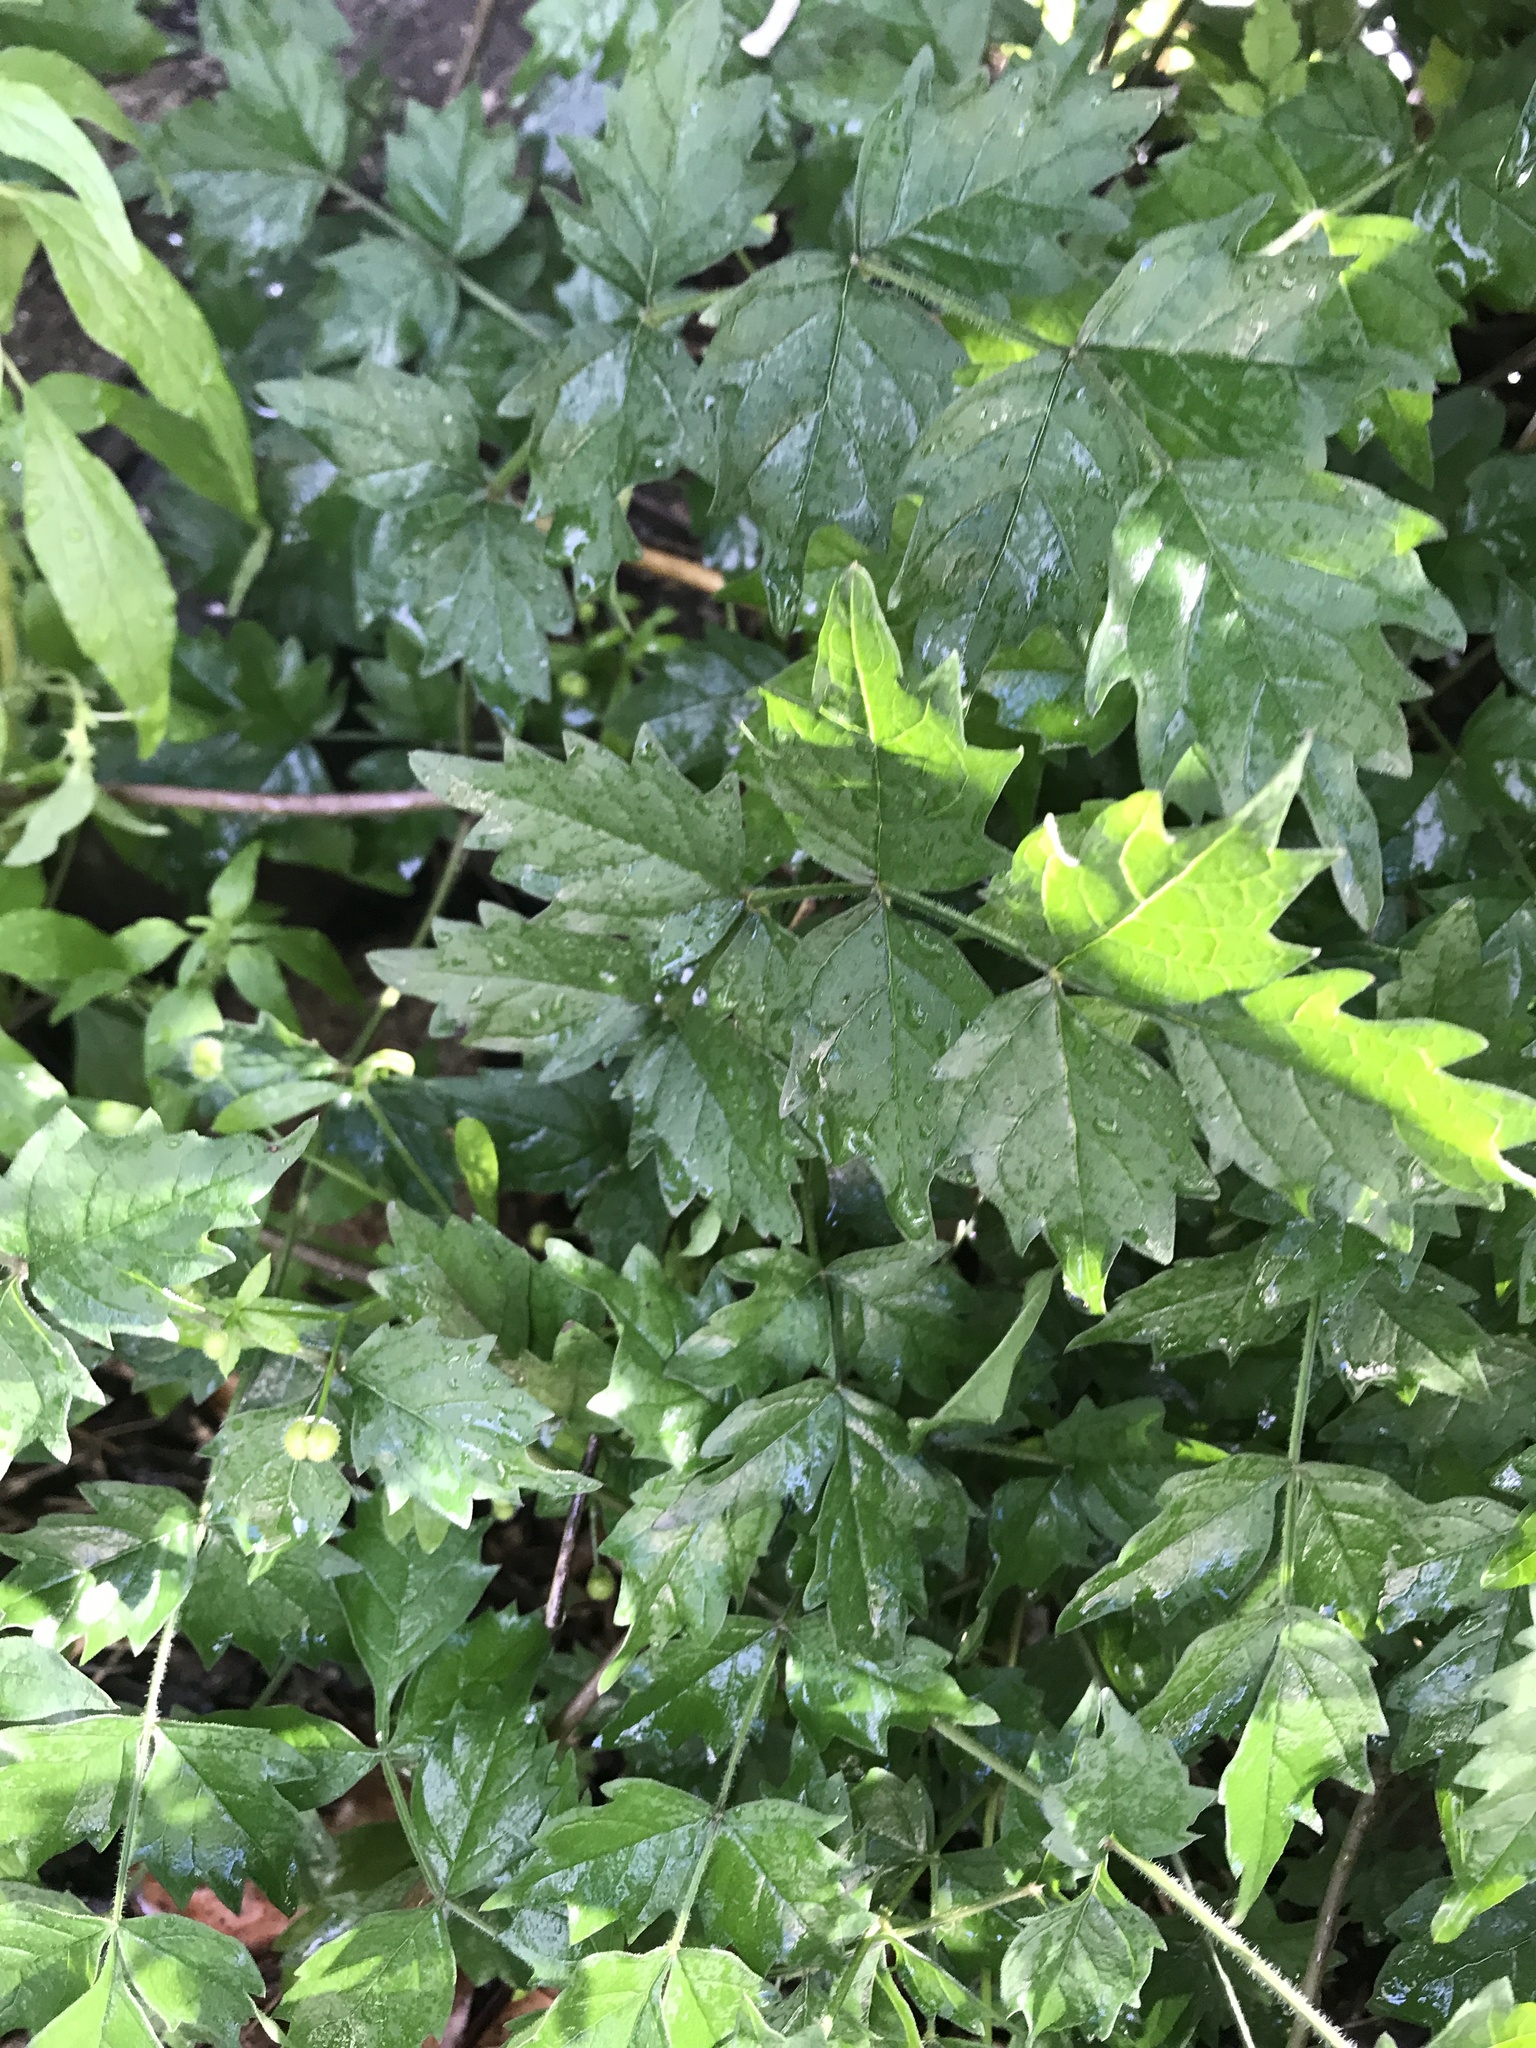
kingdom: Plantae
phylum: Tracheophyta
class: Magnoliopsida
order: Lamiales
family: Bignoniaceae
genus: Campsis
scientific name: Campsis radicans
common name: Trumpet-creeper
